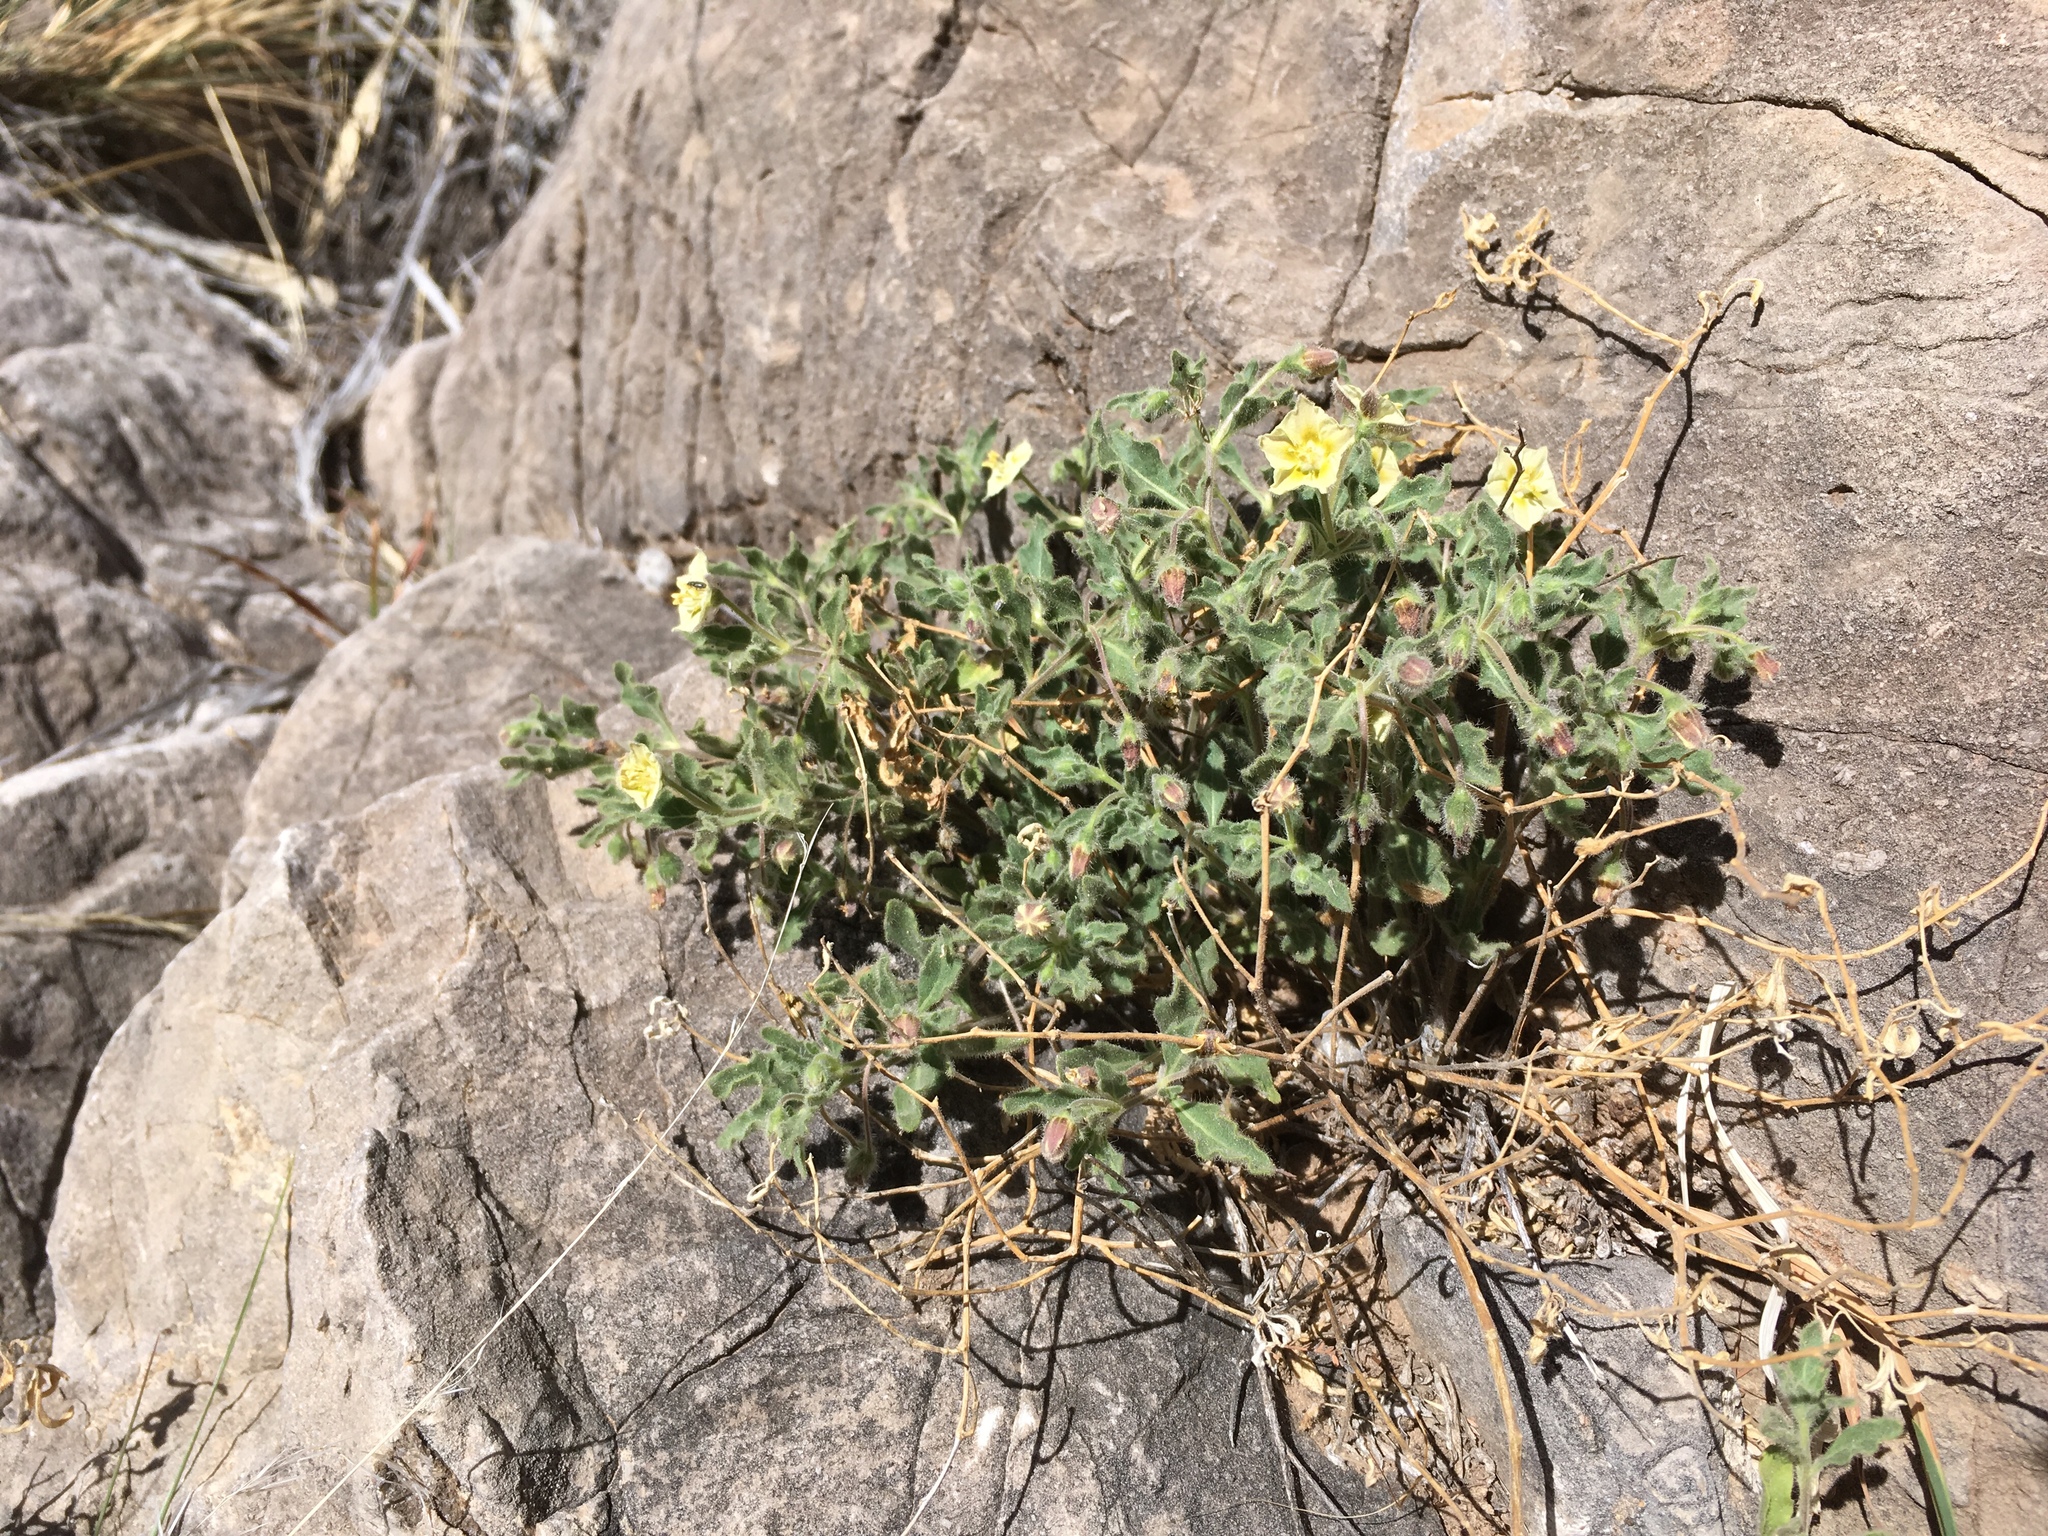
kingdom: Plantae
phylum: Tracheophyta
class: Magnoliopsida
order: Solanales
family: Solanaceae
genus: Chamaesaracha
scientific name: Chamaesaracha sordida
